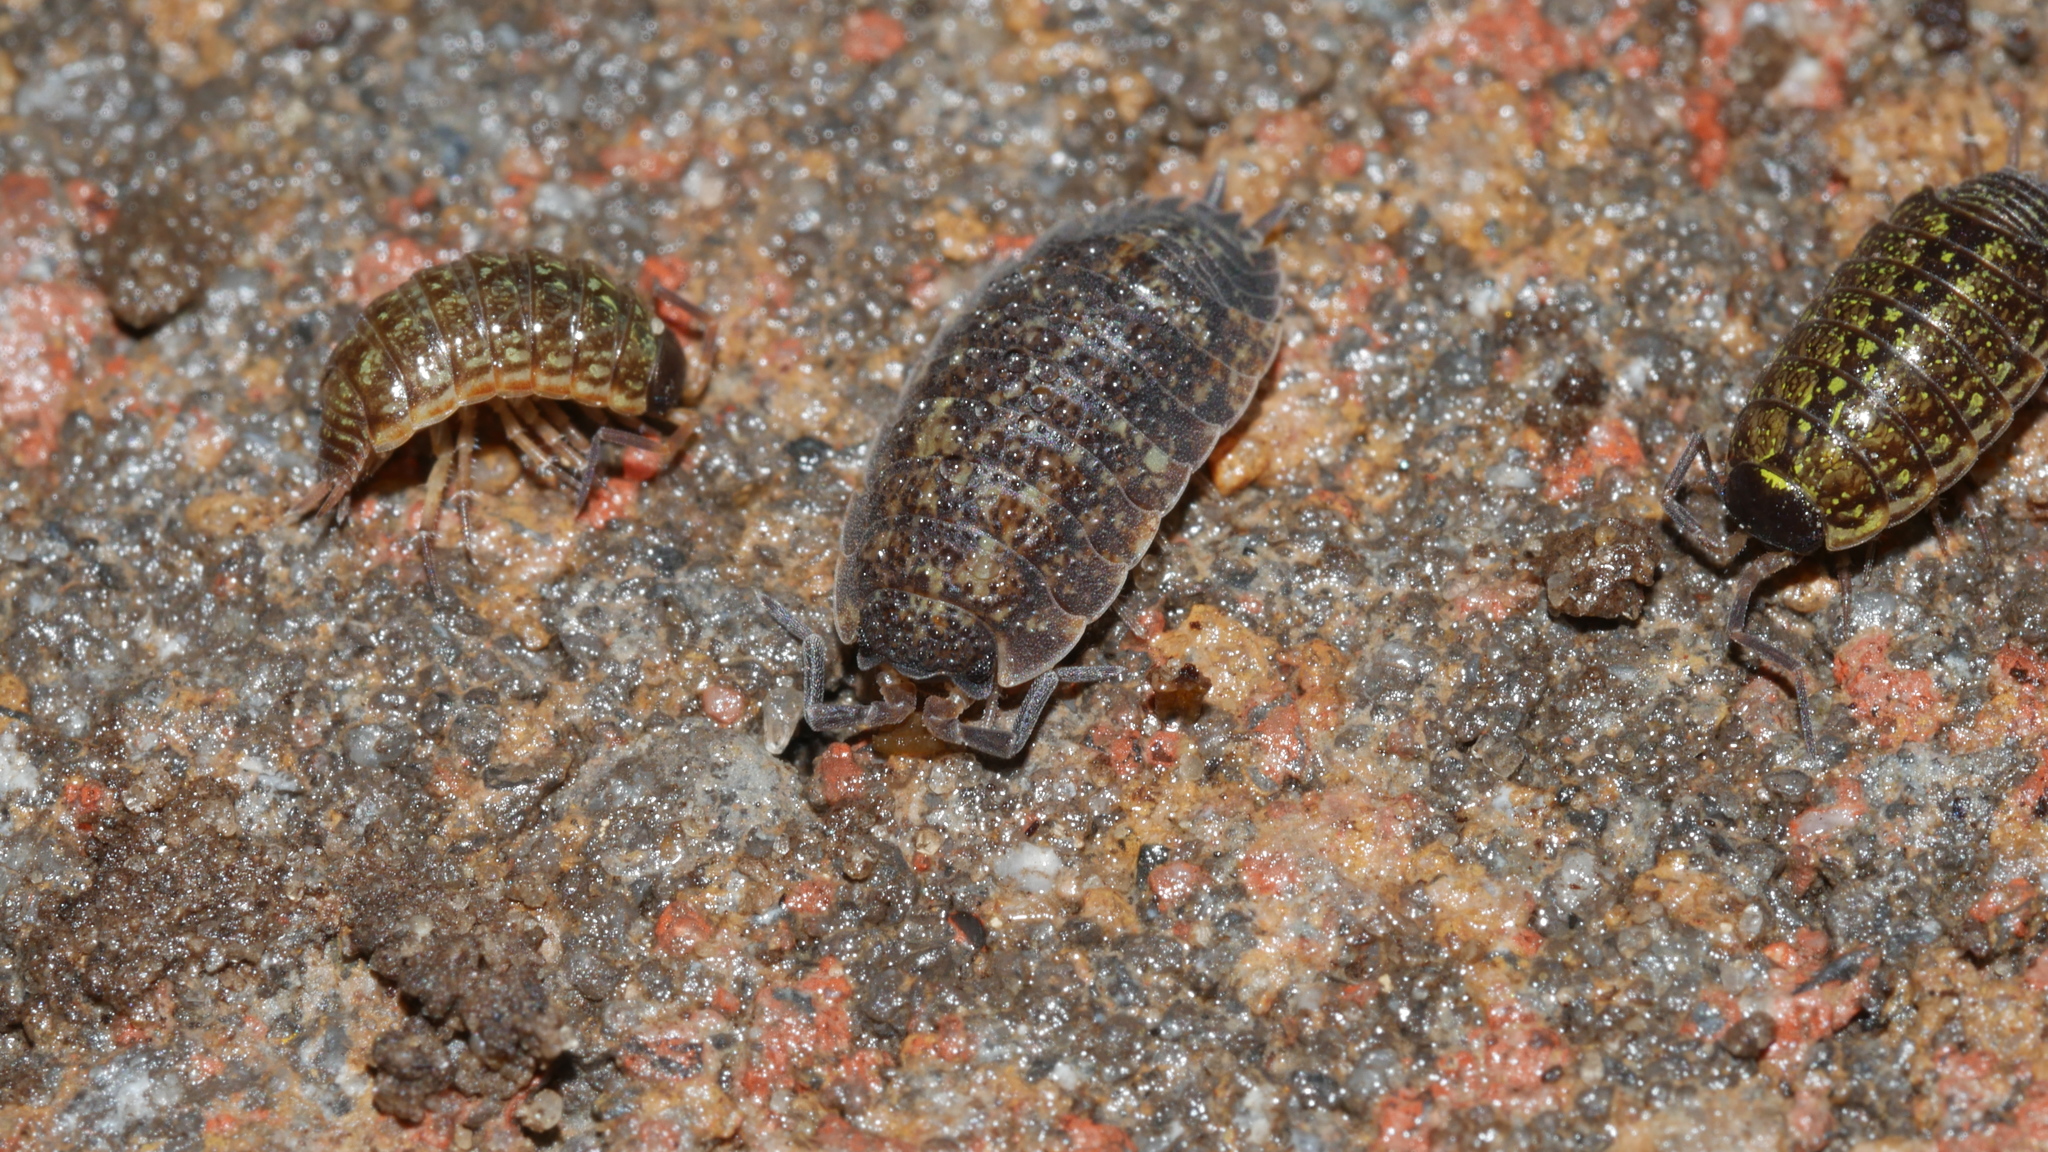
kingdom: Animalia
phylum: Arthropoda
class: Malacostraca
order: Isopoda
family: Philosciidae
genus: Philoscia
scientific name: Philoscia muscorum
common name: Common striped woodlouse
